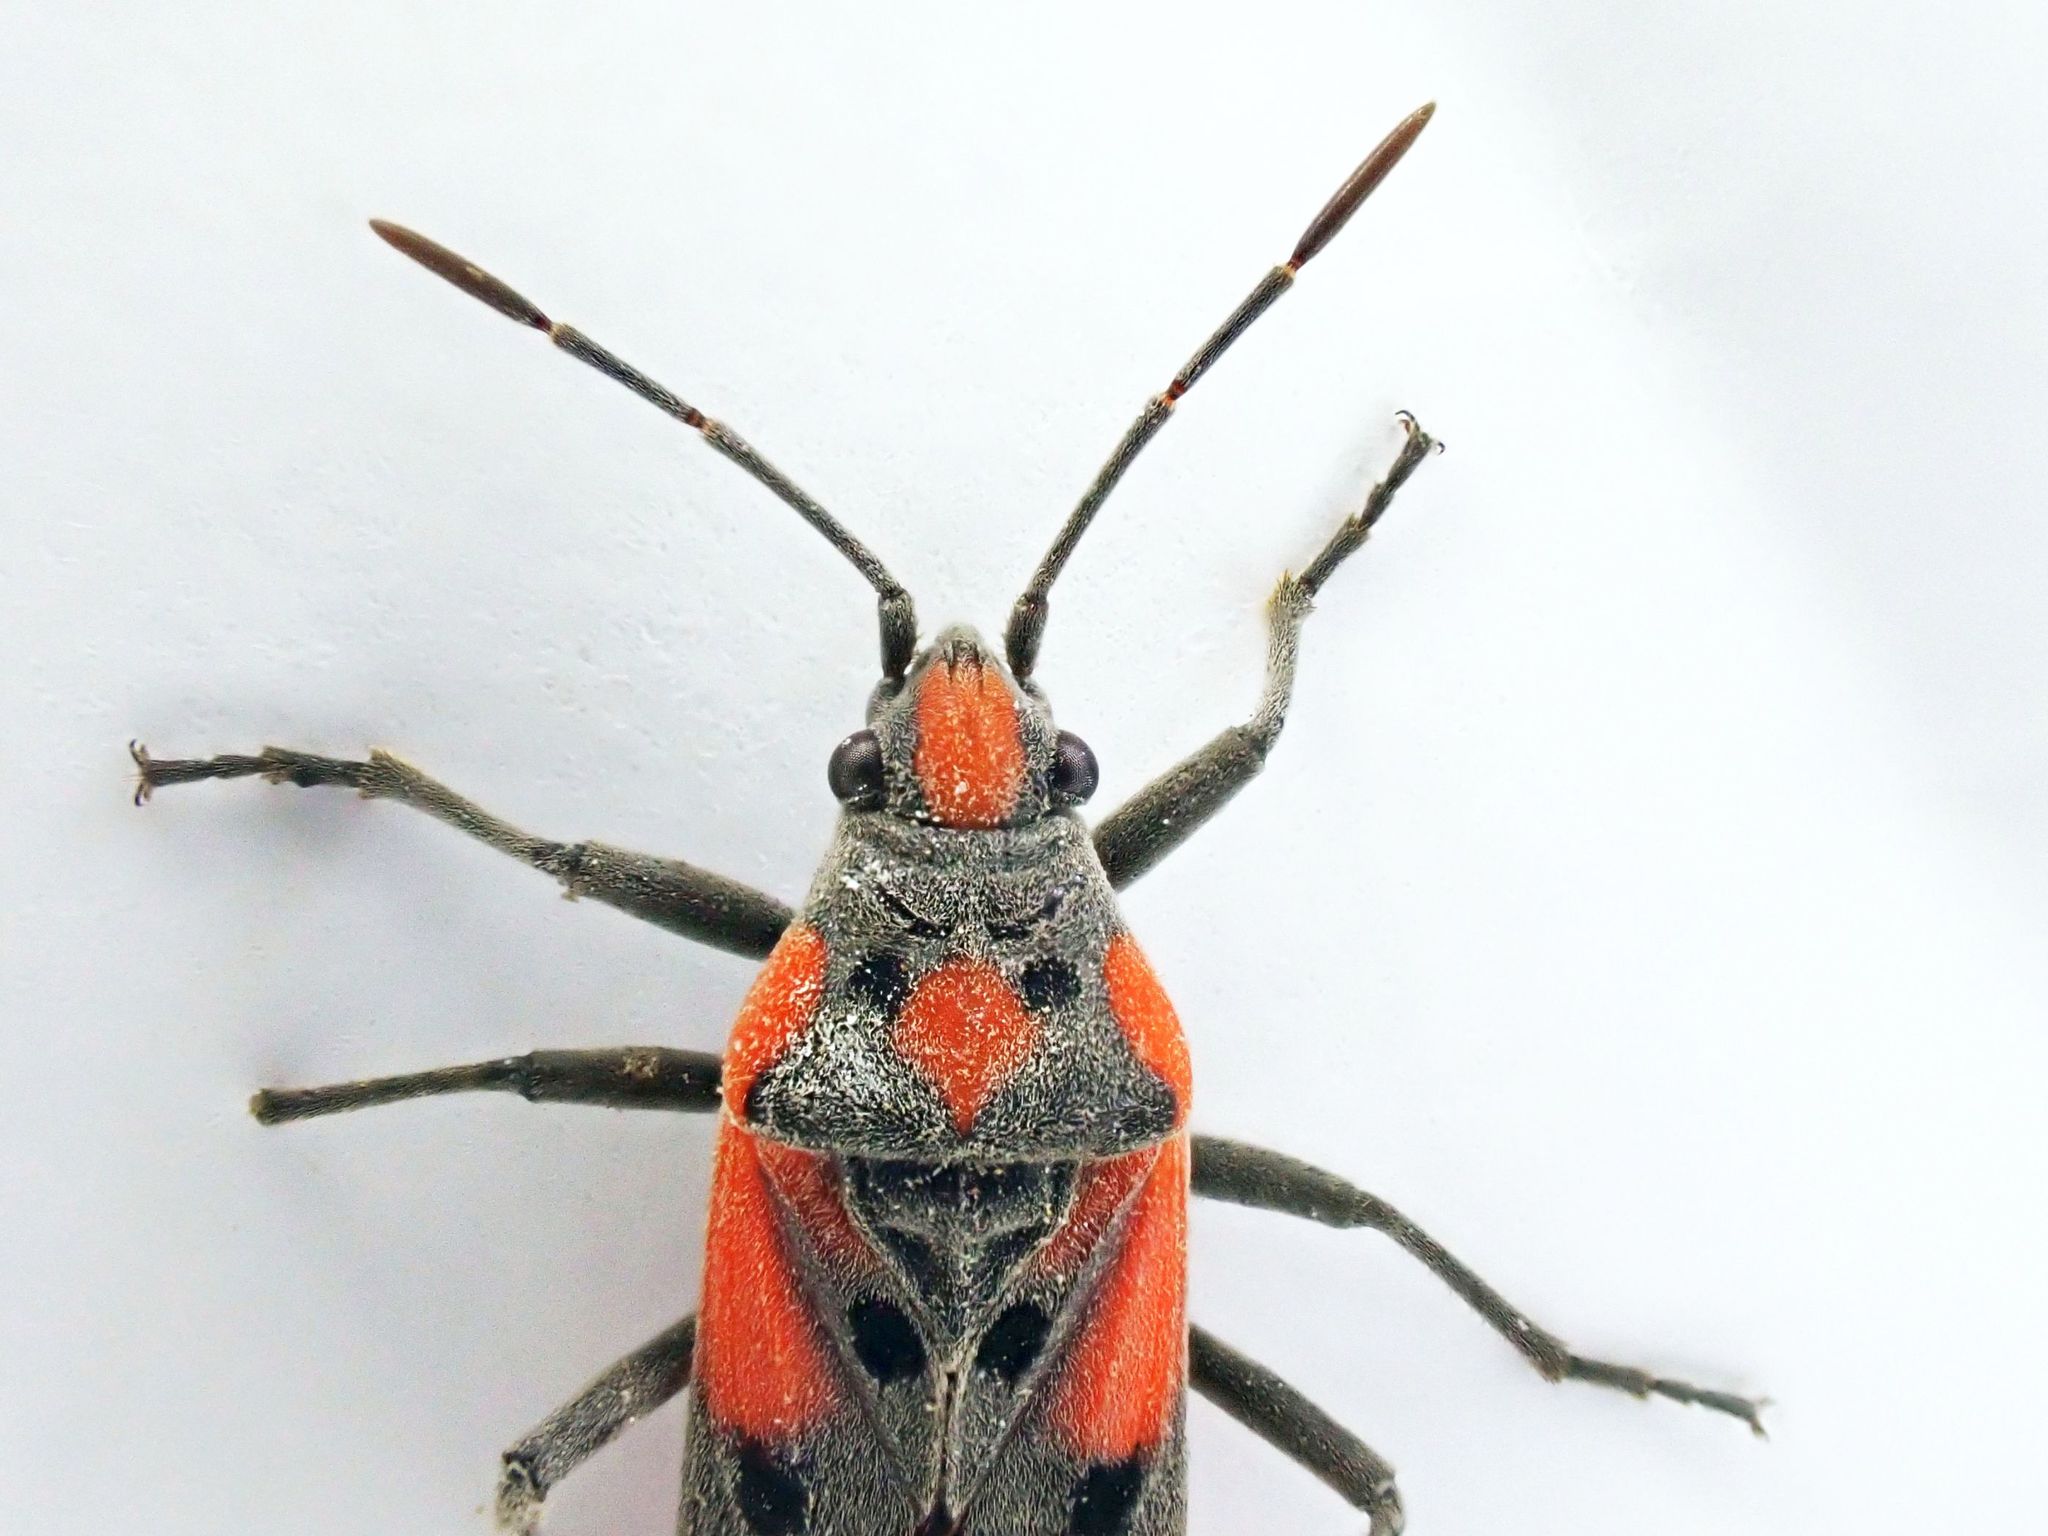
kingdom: Animalia
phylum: Arthropoda
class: Insecta
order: Hemiptera
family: Lygaeidae
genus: Lygaeus
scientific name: Lygaeus murinus
